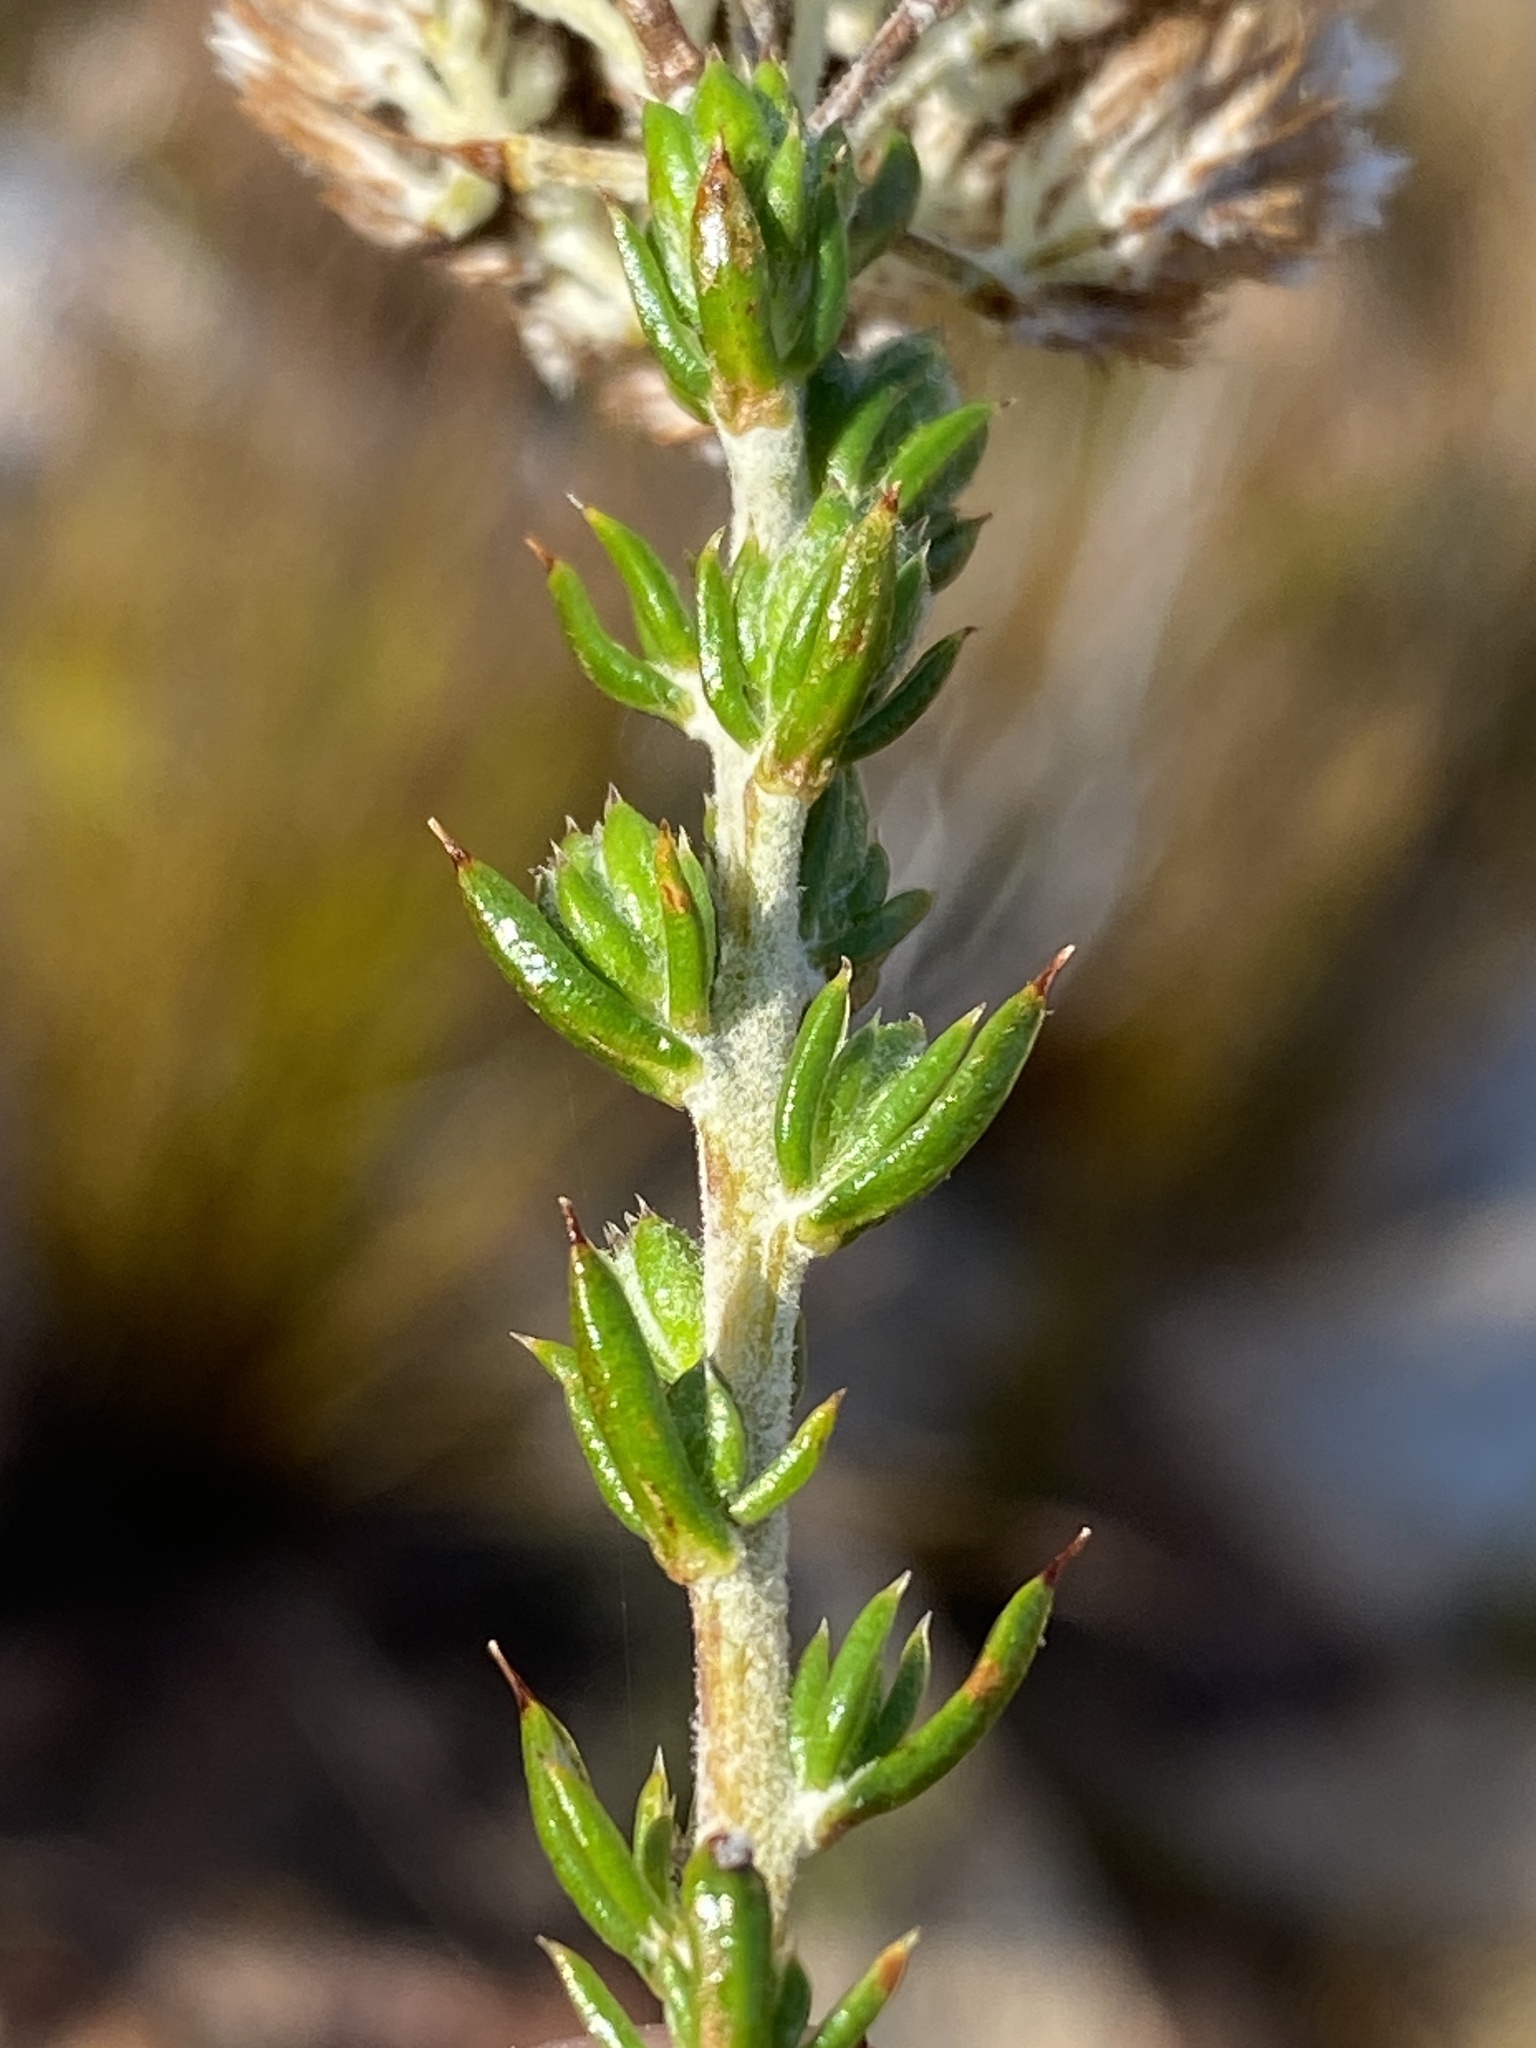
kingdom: Plantae
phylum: Tracheophyta
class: Magnoliopsida
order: Asterales
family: Asteraceae
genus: Metalasia
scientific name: Metalasia densa
